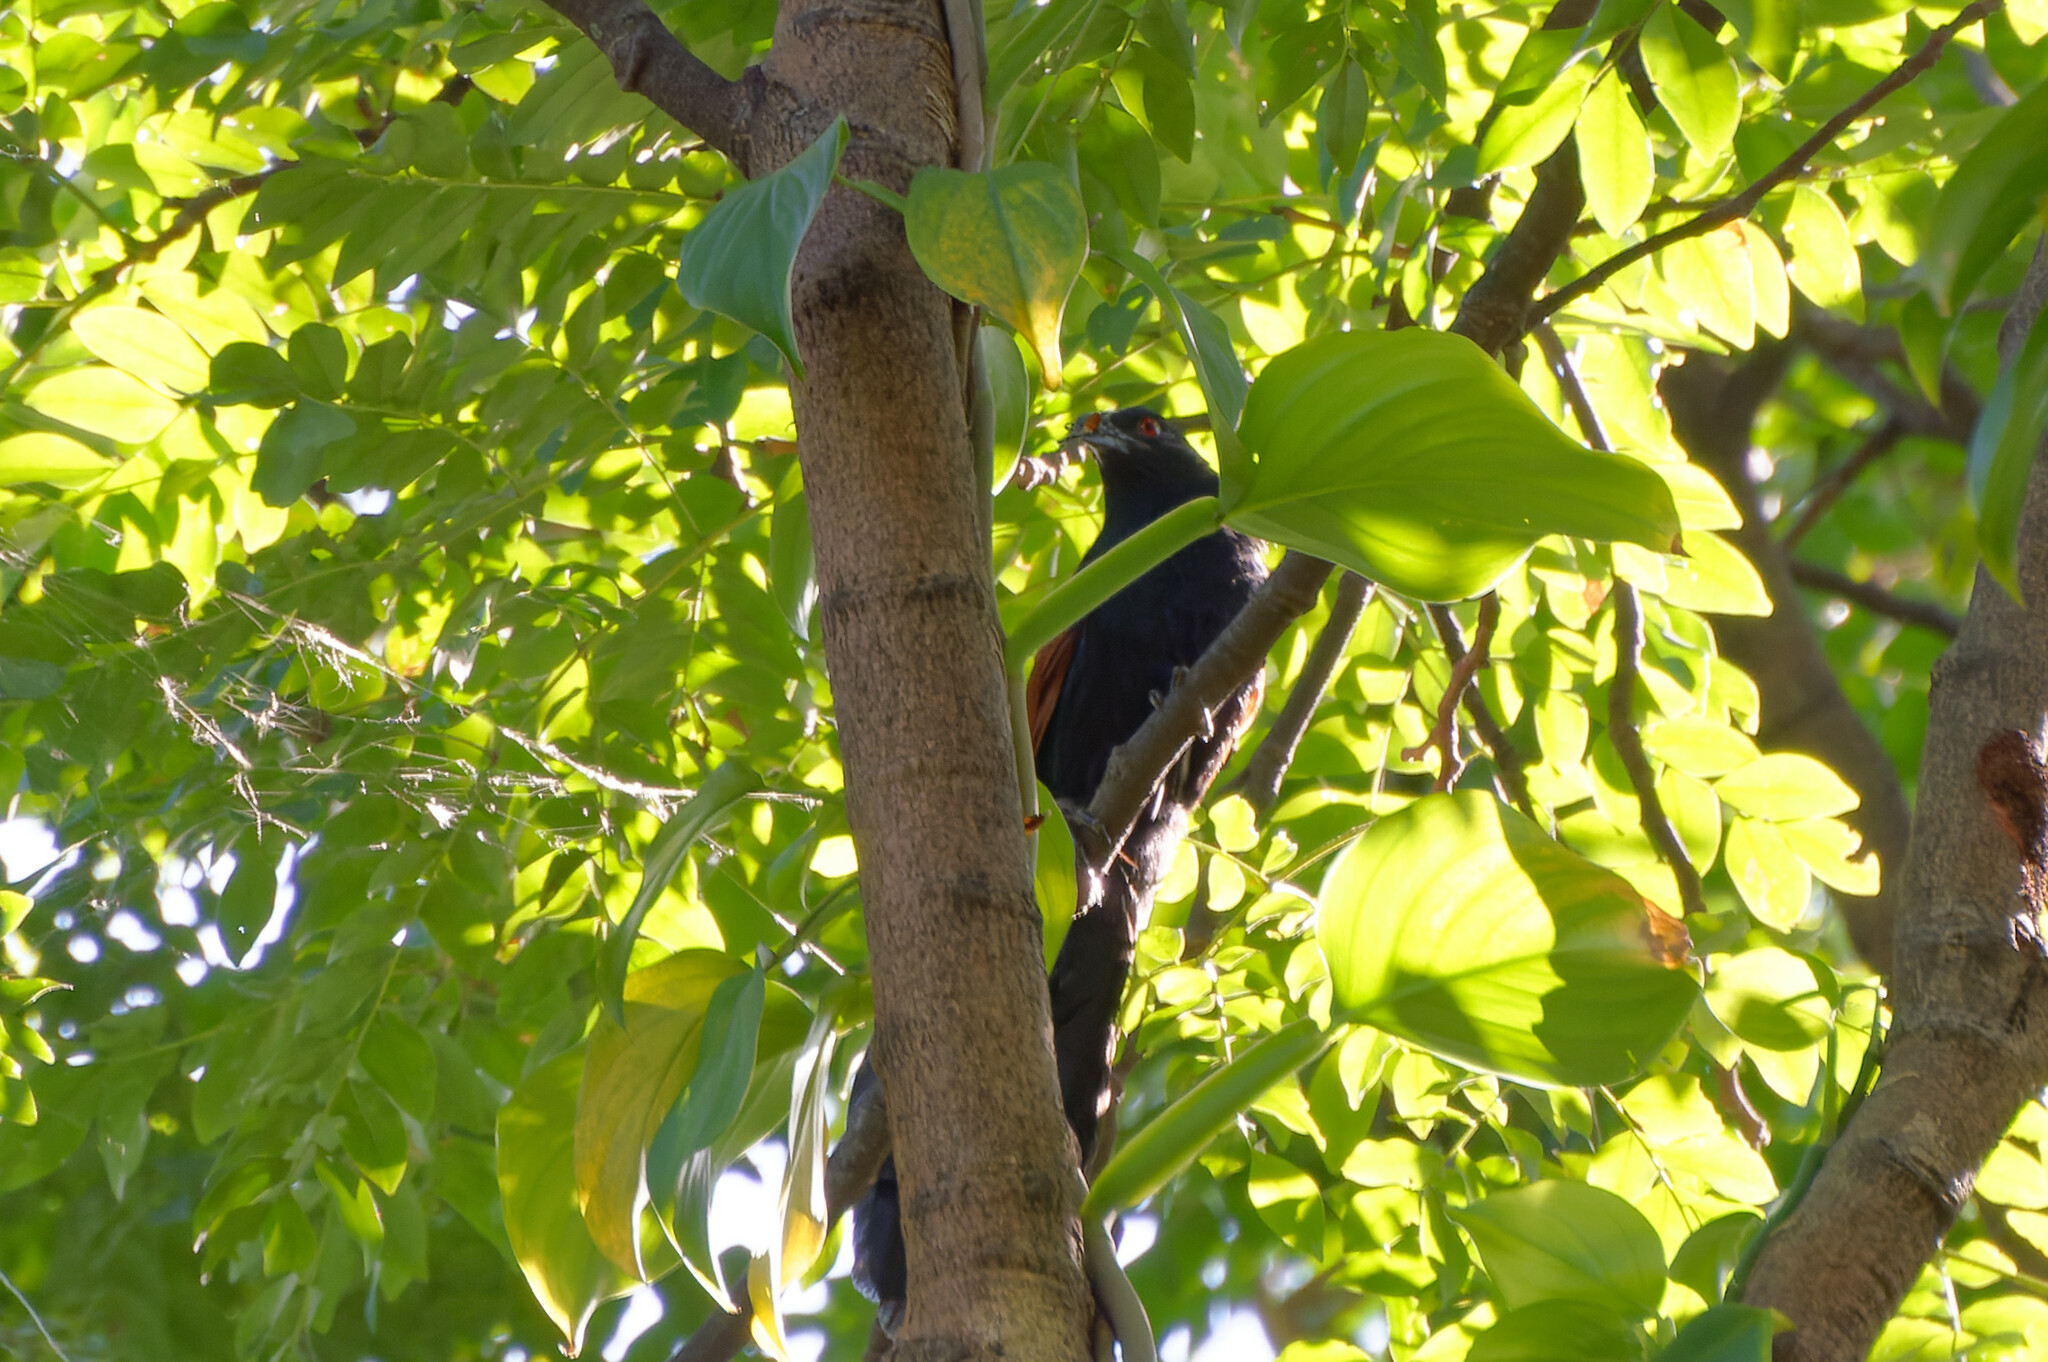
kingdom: Animalia
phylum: Chordata
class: Aves
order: Cuculiformes
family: Cuculidae
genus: Centropus
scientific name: Centropus sinensis
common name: Greater coucal
